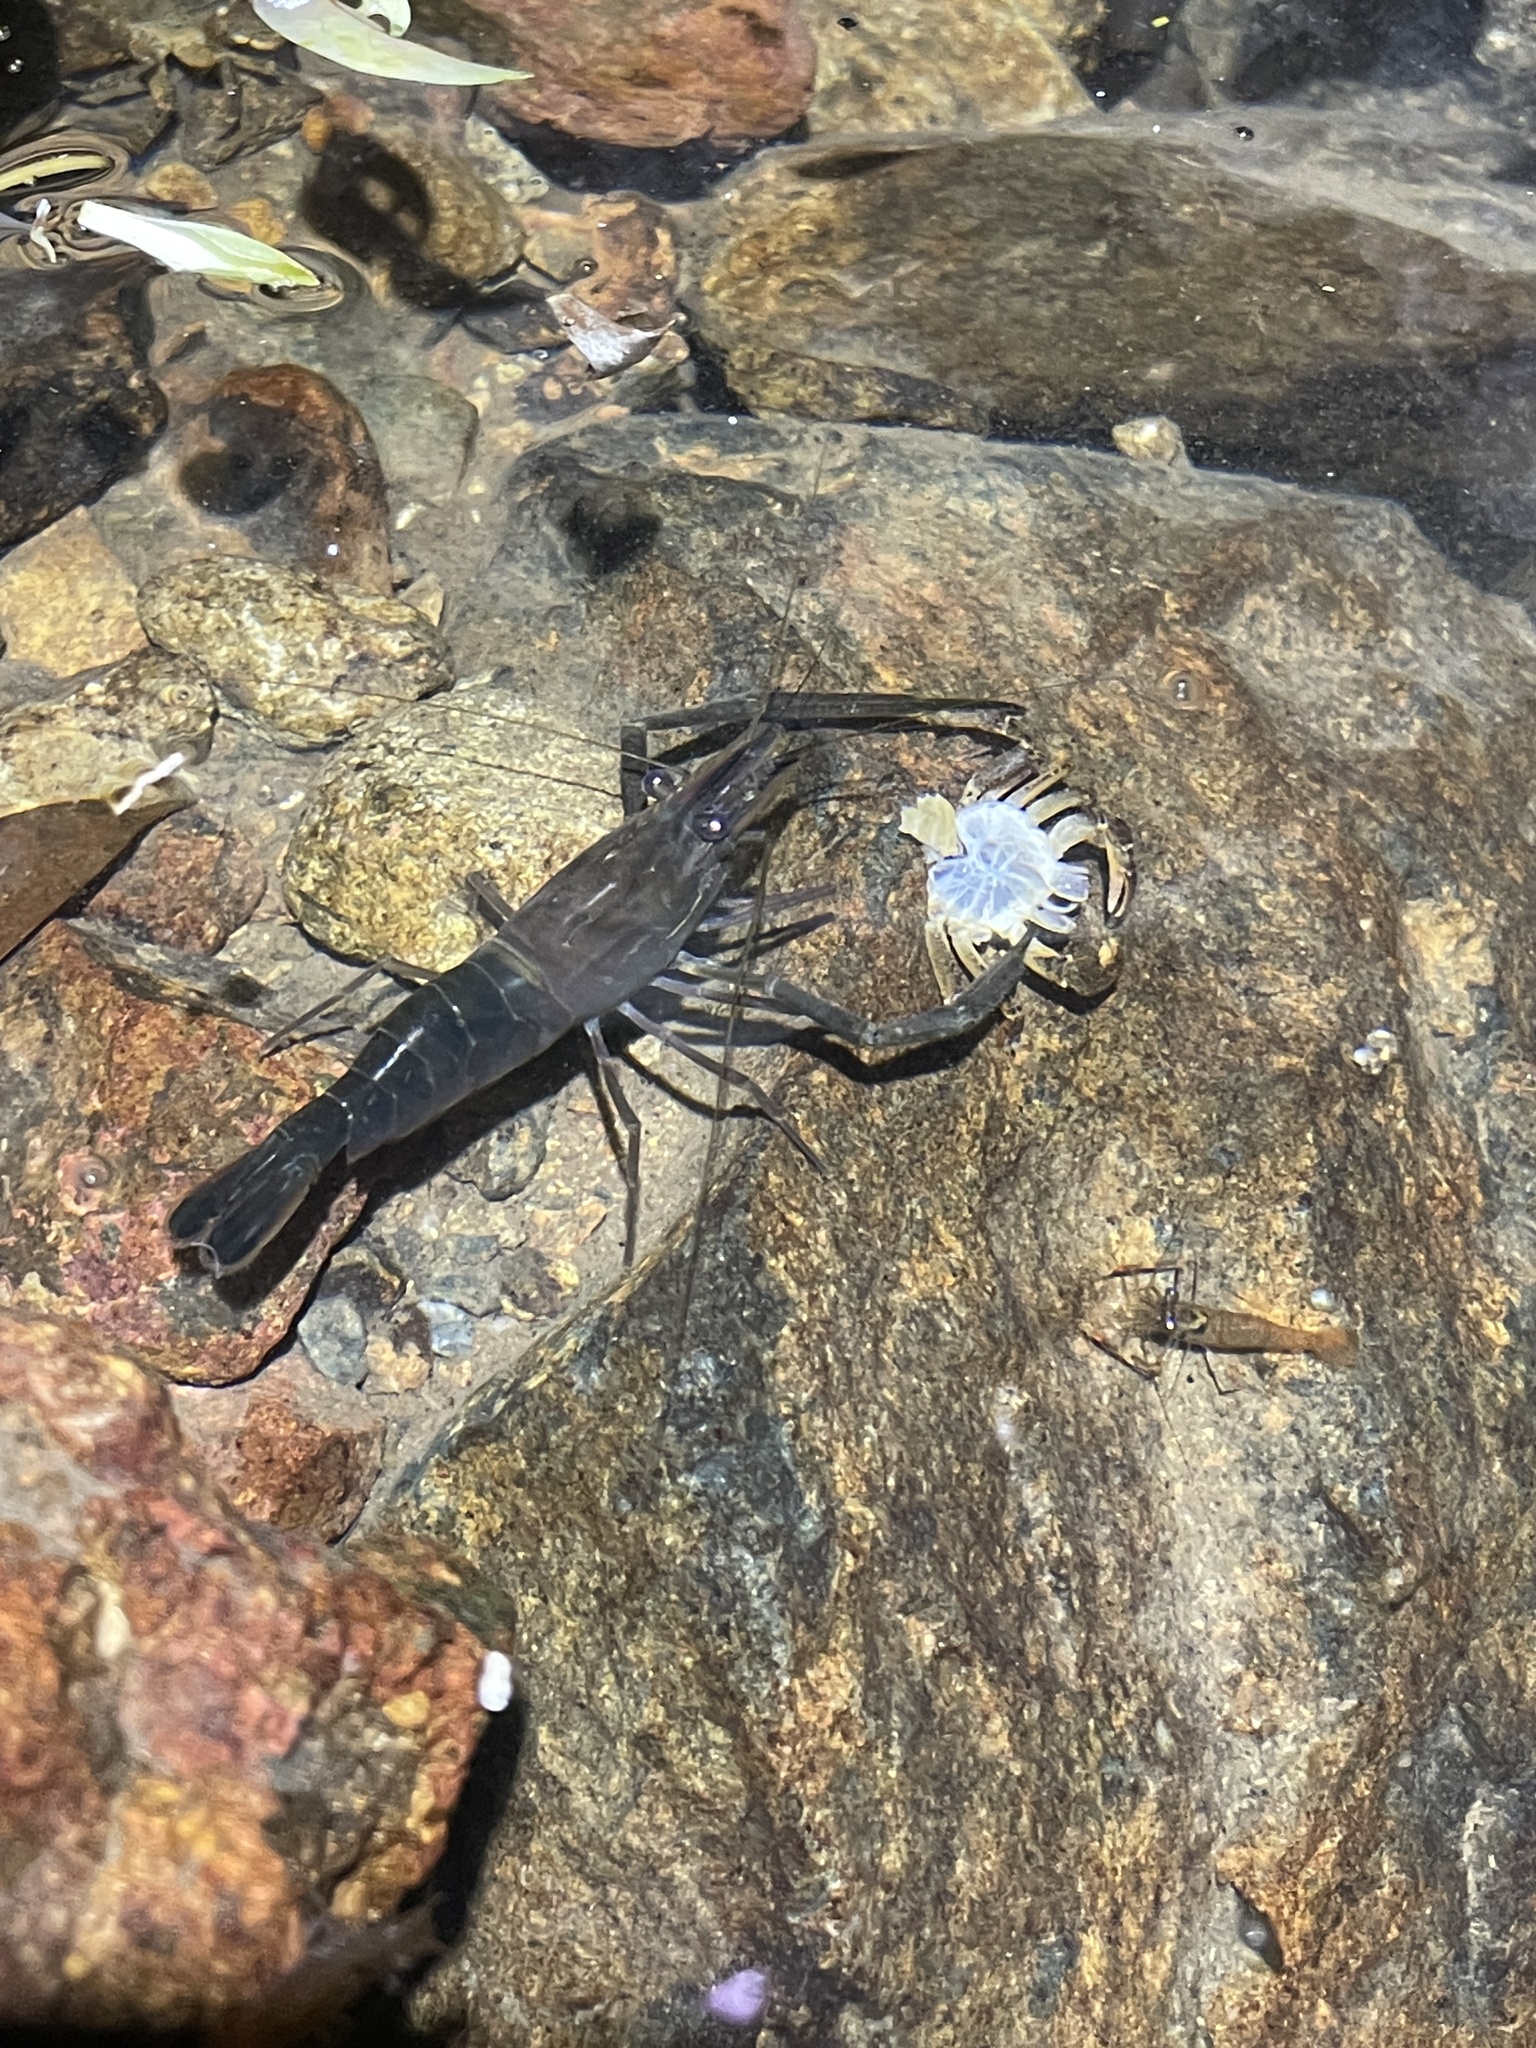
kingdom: Animalia
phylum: Arthropoda
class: Malacostraca
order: Decapoda
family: Palaemonidae
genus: Macrobrachium
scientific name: Macrobrachium laevis
